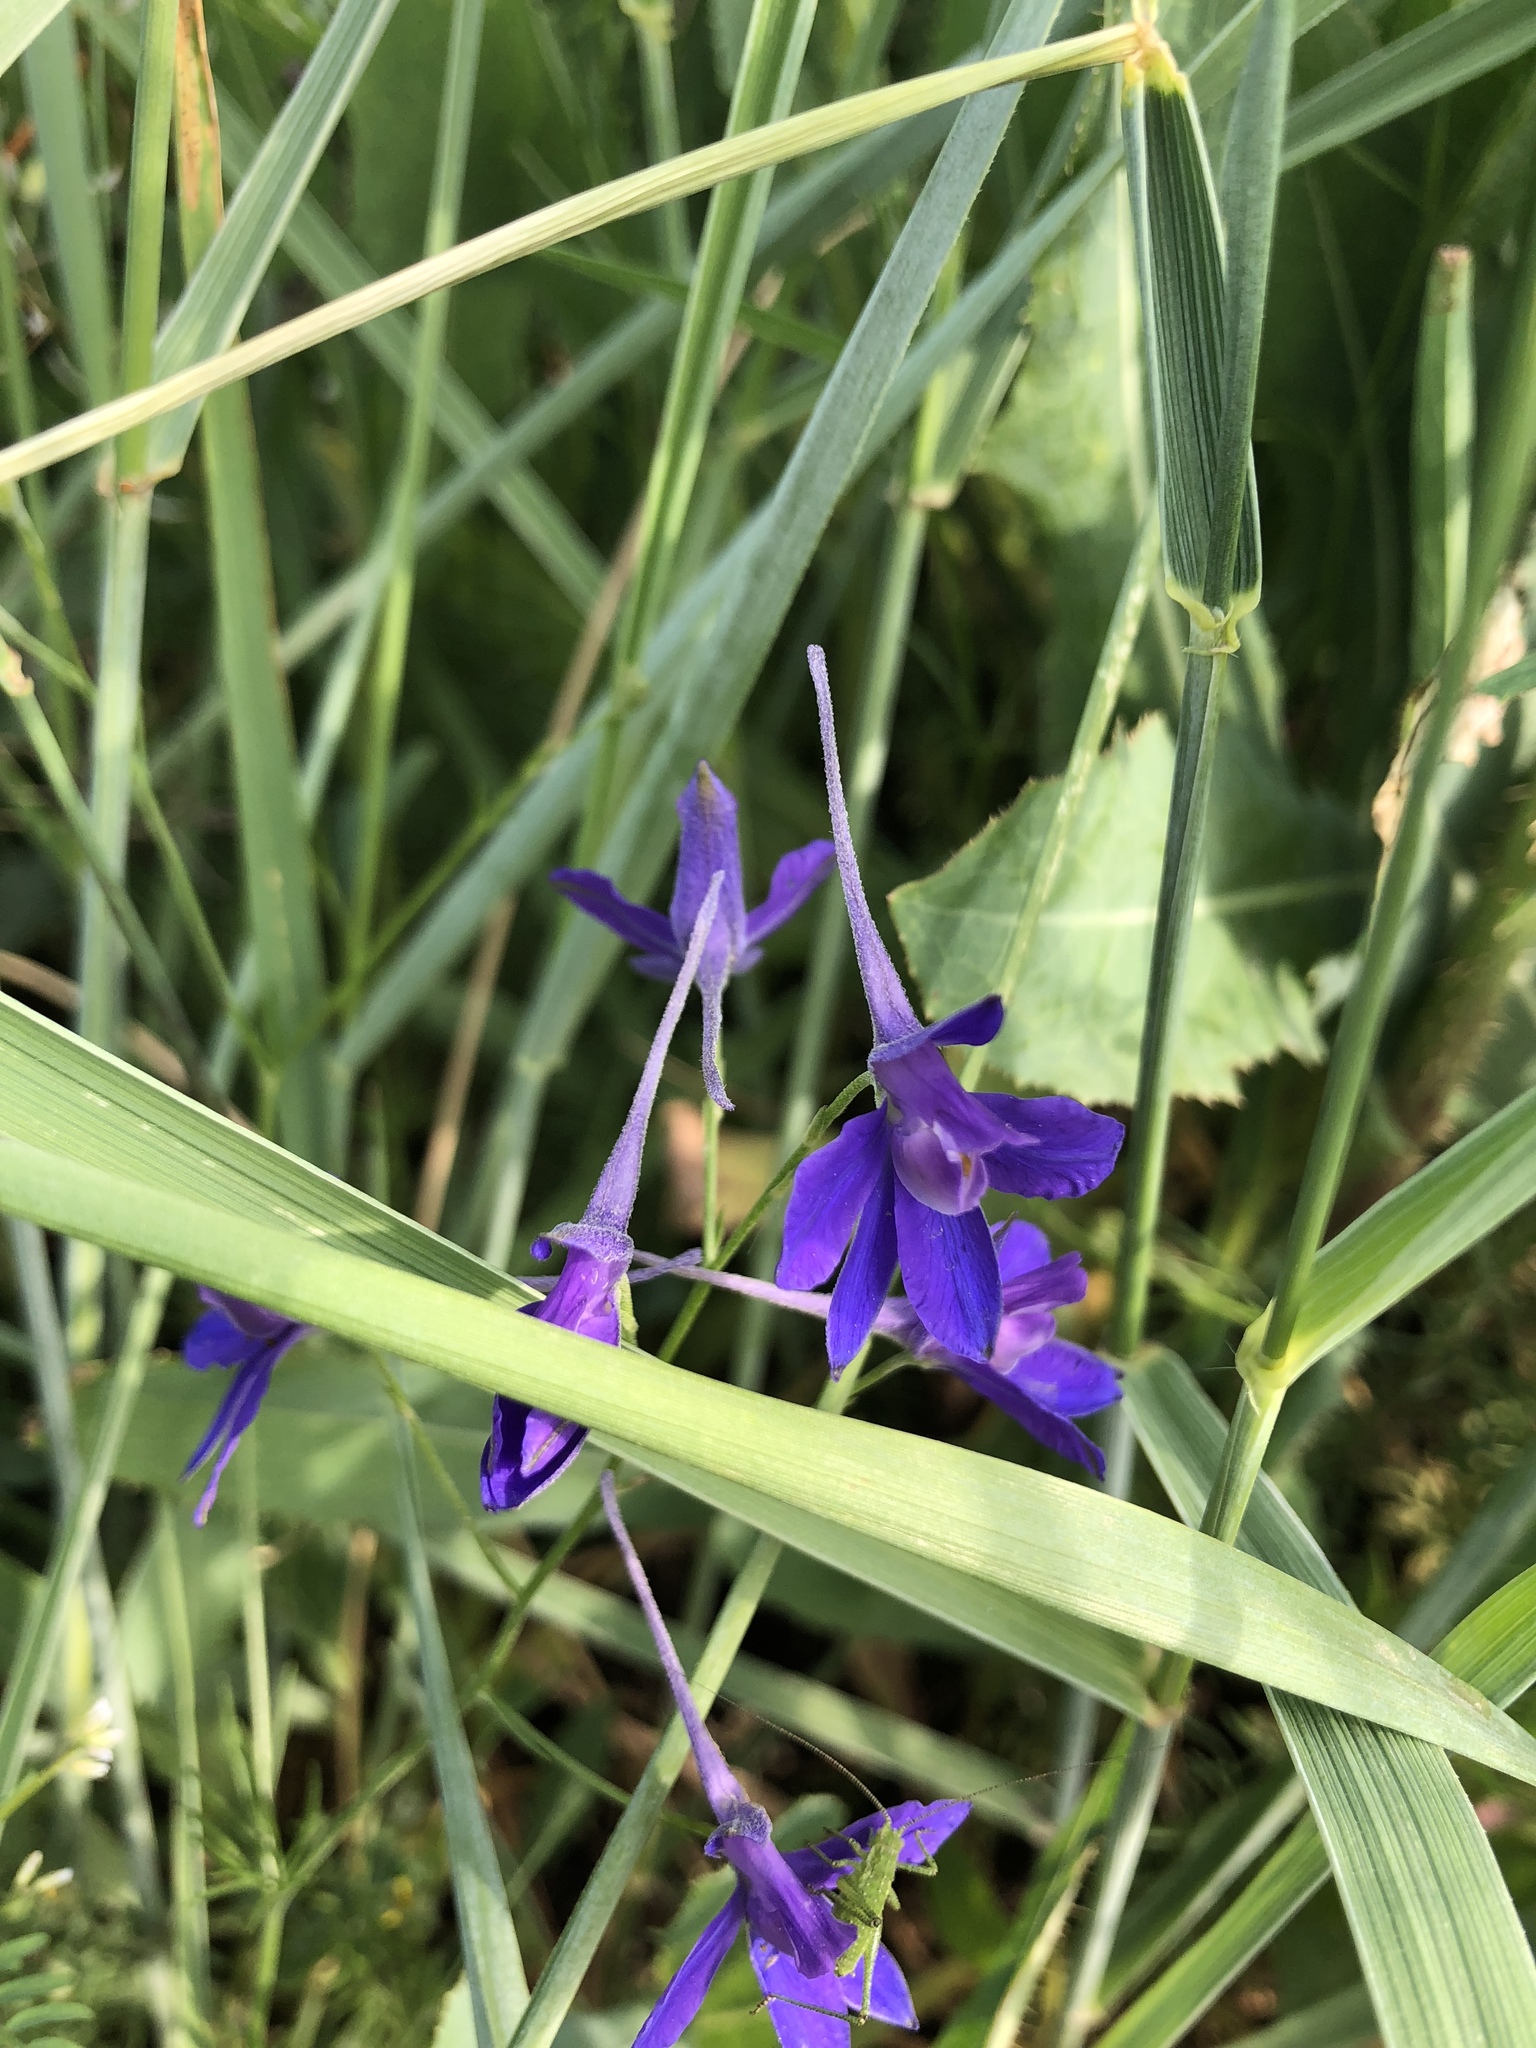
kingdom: Plantae
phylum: Tracheophyta
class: Magnoliopsida
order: Ranunculales
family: Ranunculaceae
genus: Delphinium
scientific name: Delphinium consolida
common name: Branching larkspur
